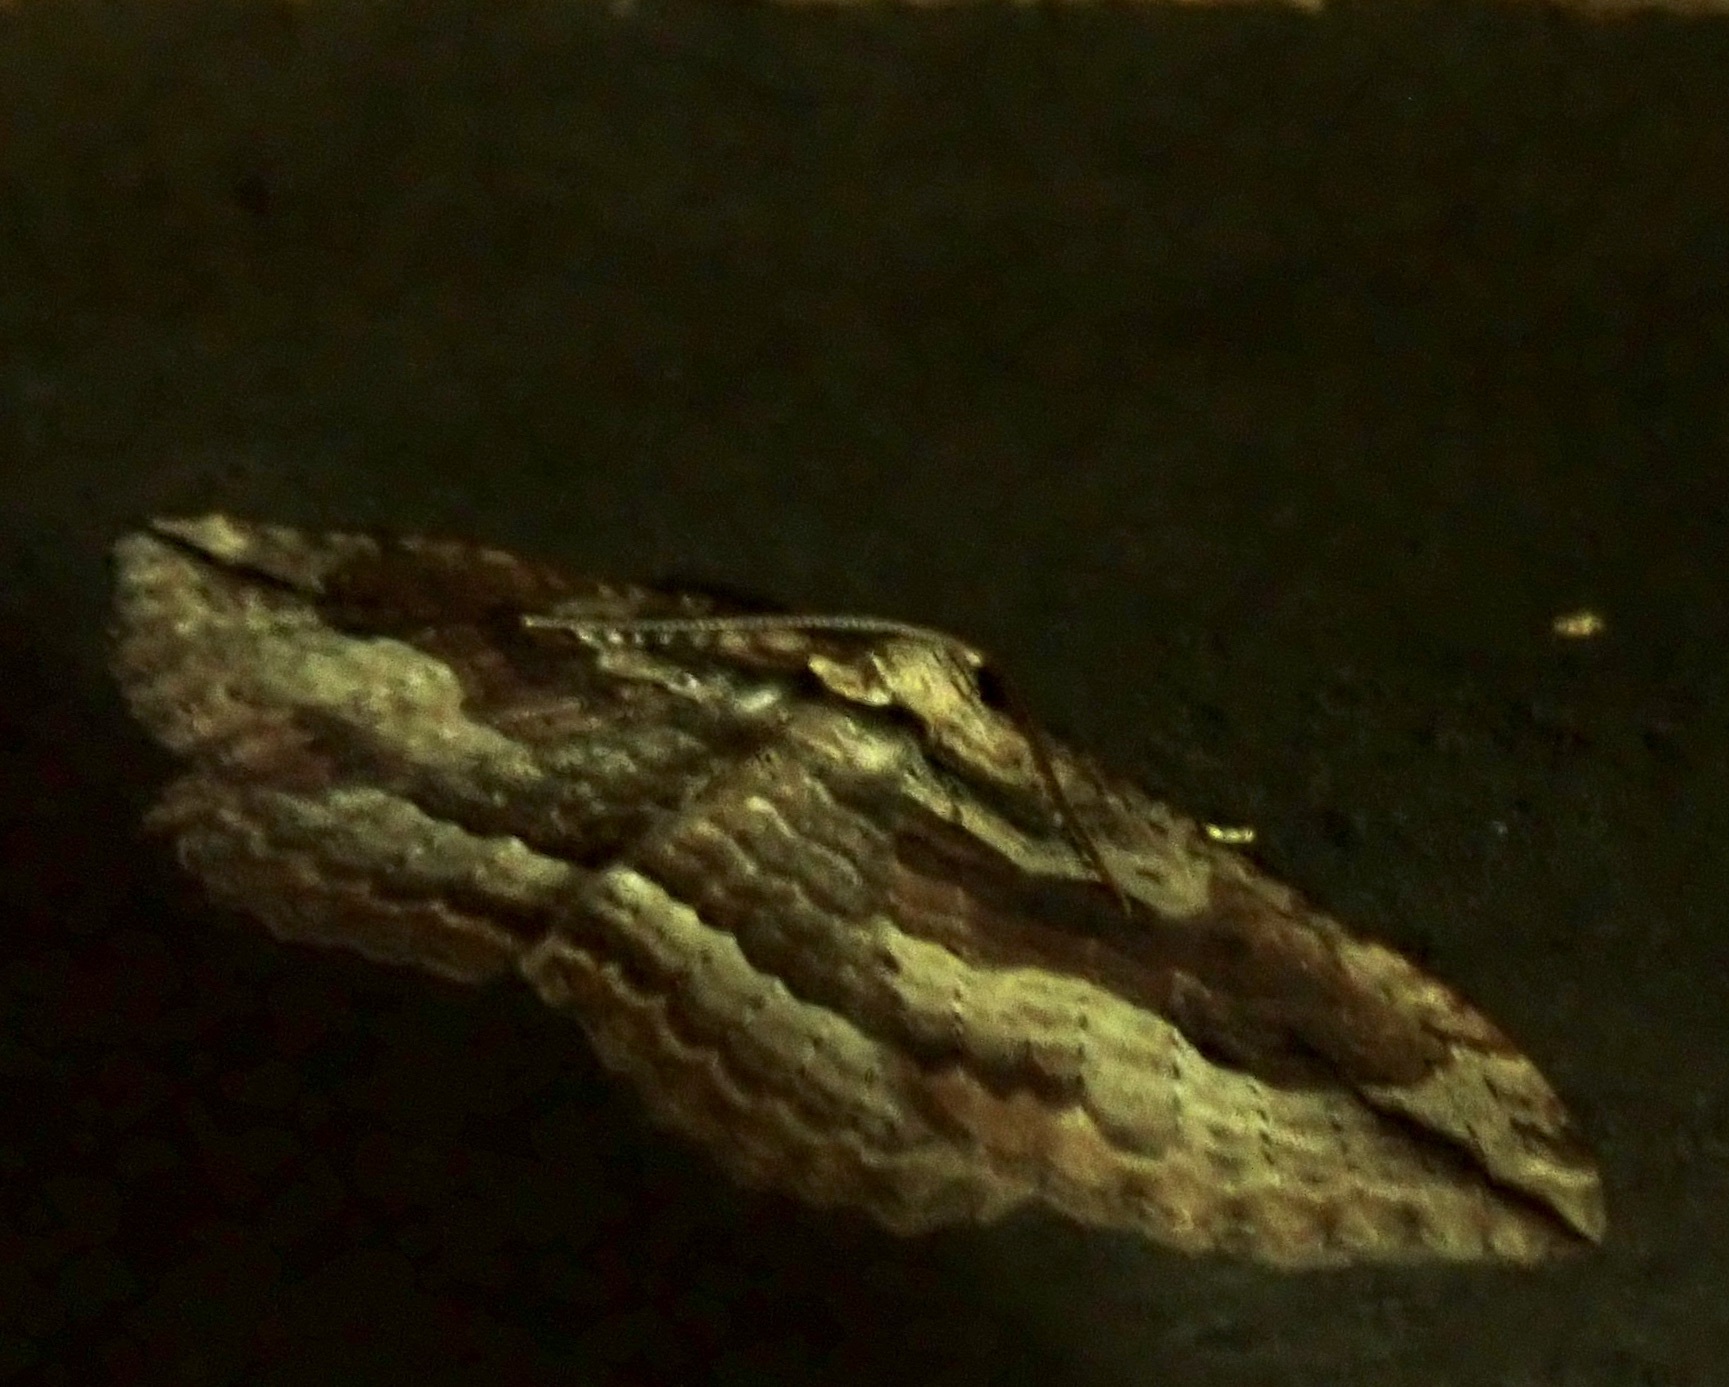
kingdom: Animalia
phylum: Arthropoda
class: Insecta
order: Lepidoptera
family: Geometridae
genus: Austrocidaria
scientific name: Austrocidaria gobiata
